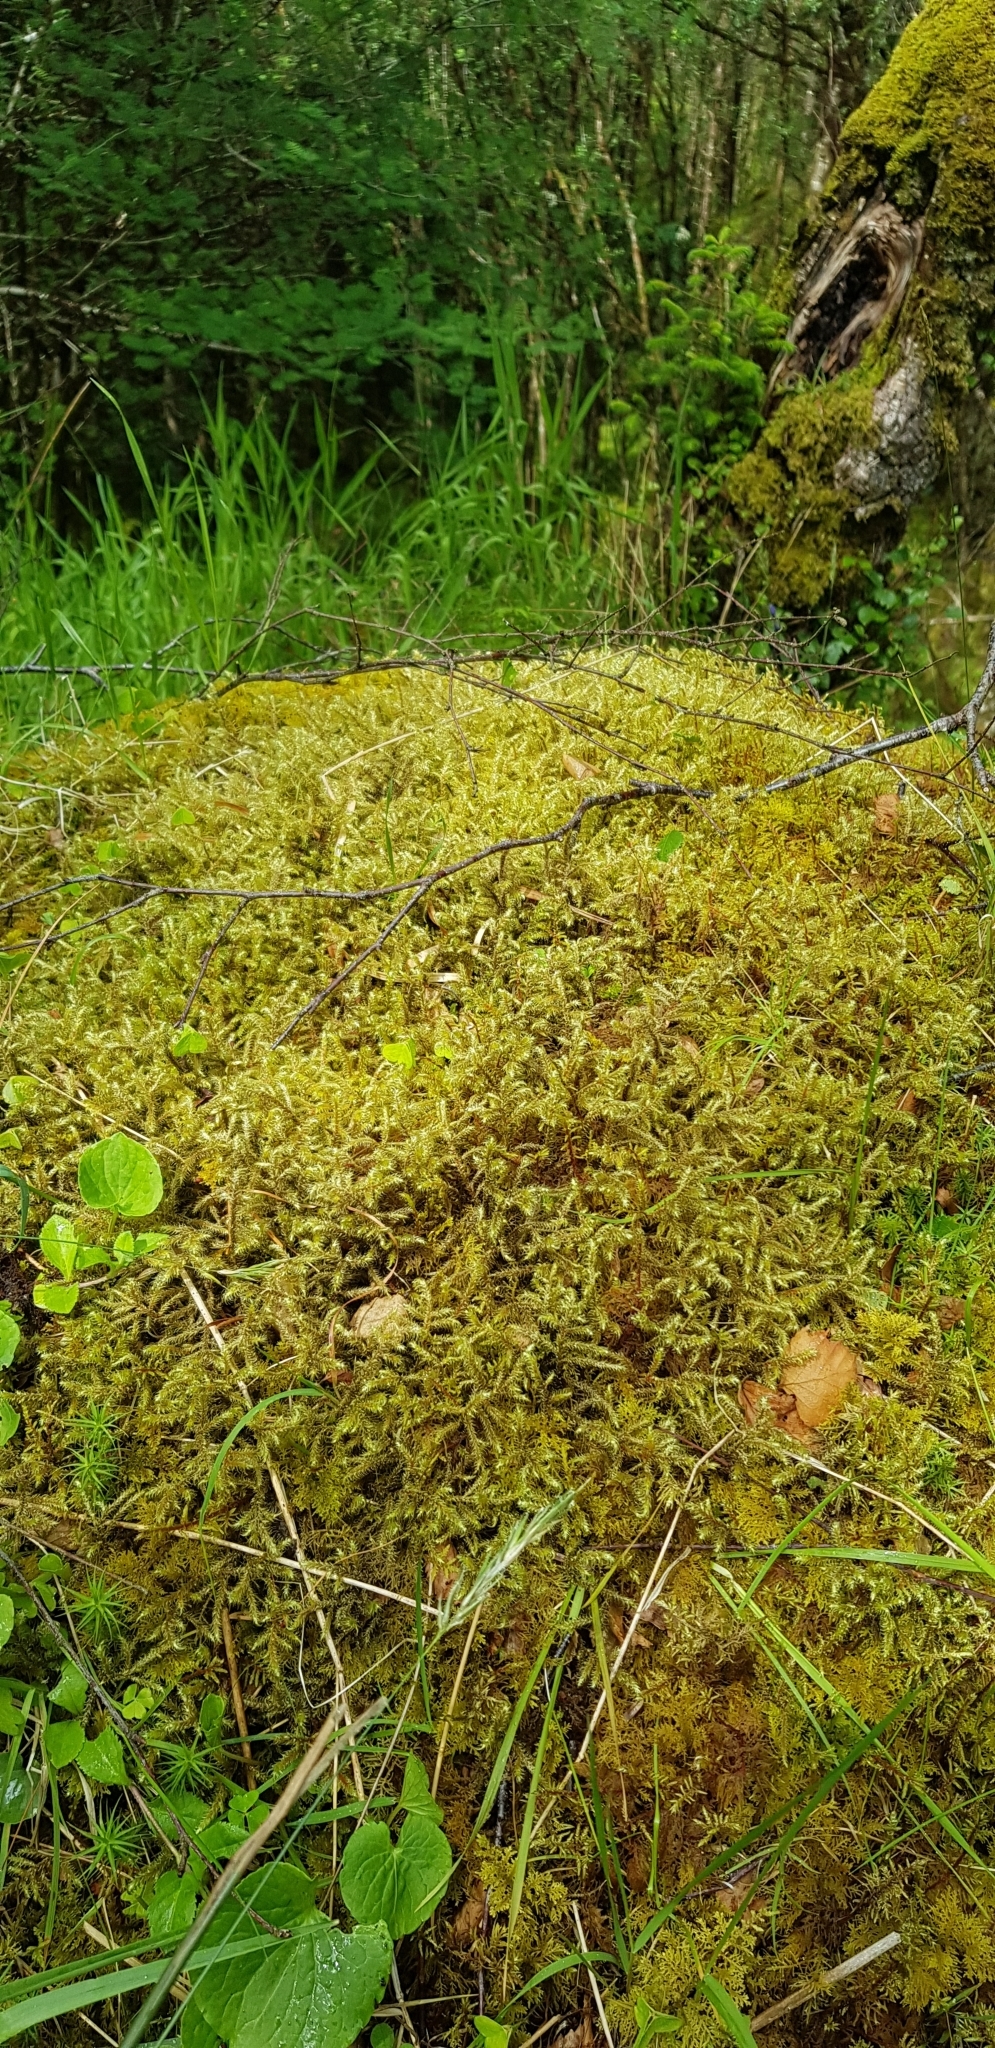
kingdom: Plantae
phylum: Bryophyta
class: Bryopsida
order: Hypnales
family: Hylocomiaceae
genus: Rhytidiadelphus
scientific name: Rhytidiadelphus loreus
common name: Lanky moss
